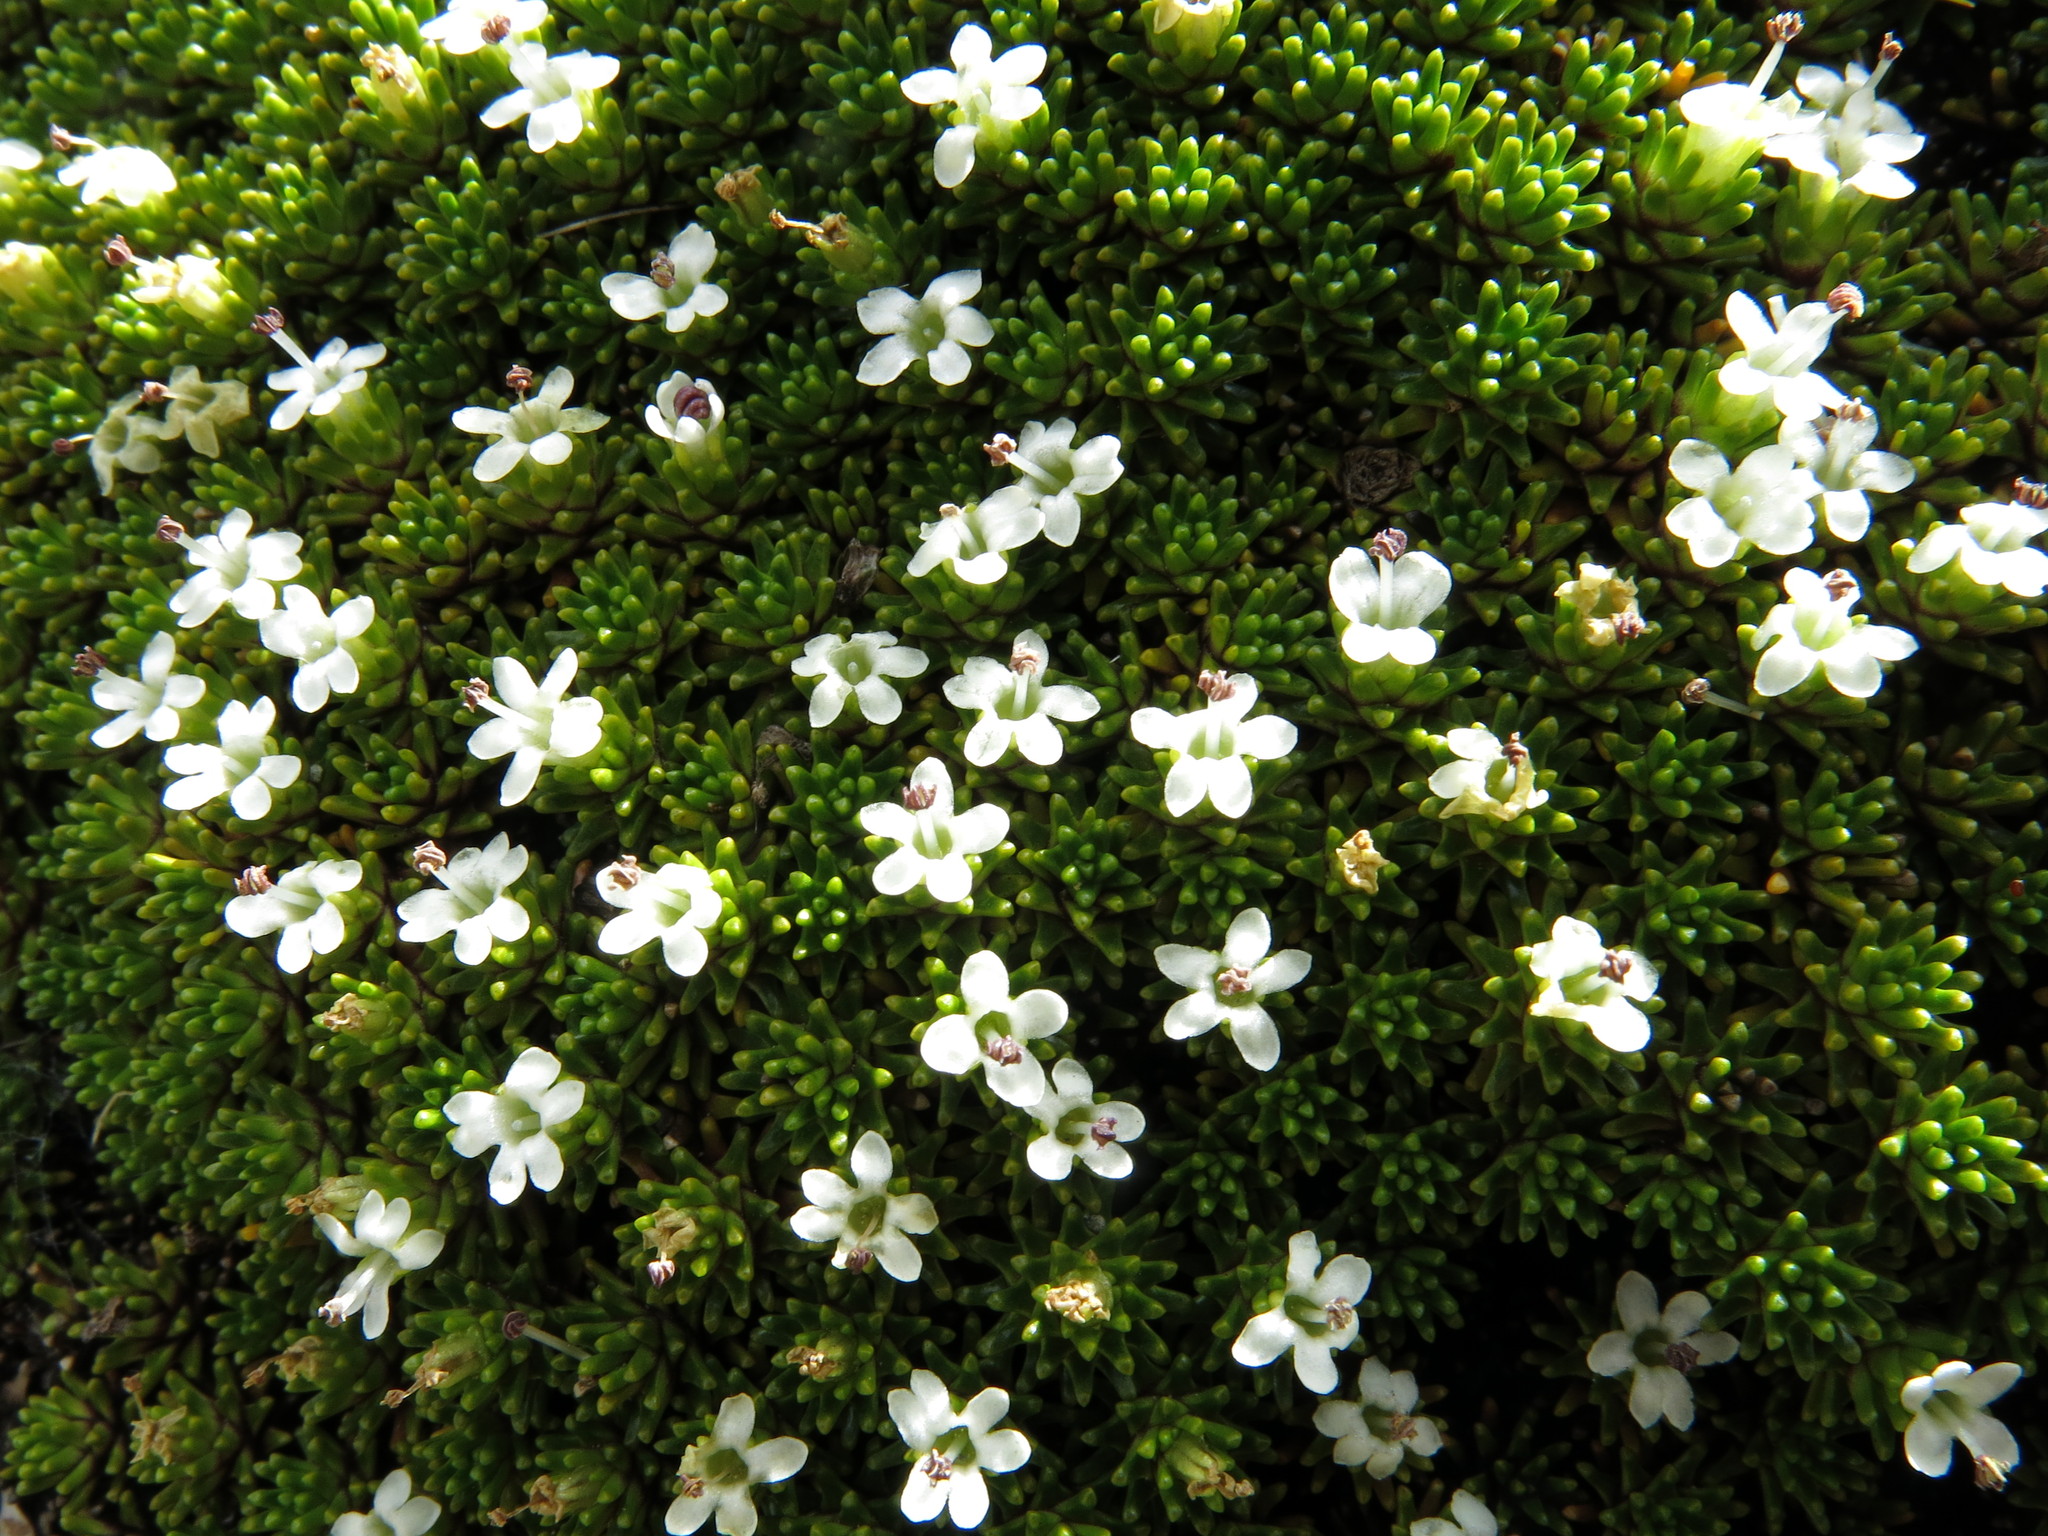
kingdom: Plantae
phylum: Tracheophyta
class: Magnoliopsida
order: Asterales
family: Stylidiaceae
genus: Phyllachne
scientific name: Phyllachne colensoi
